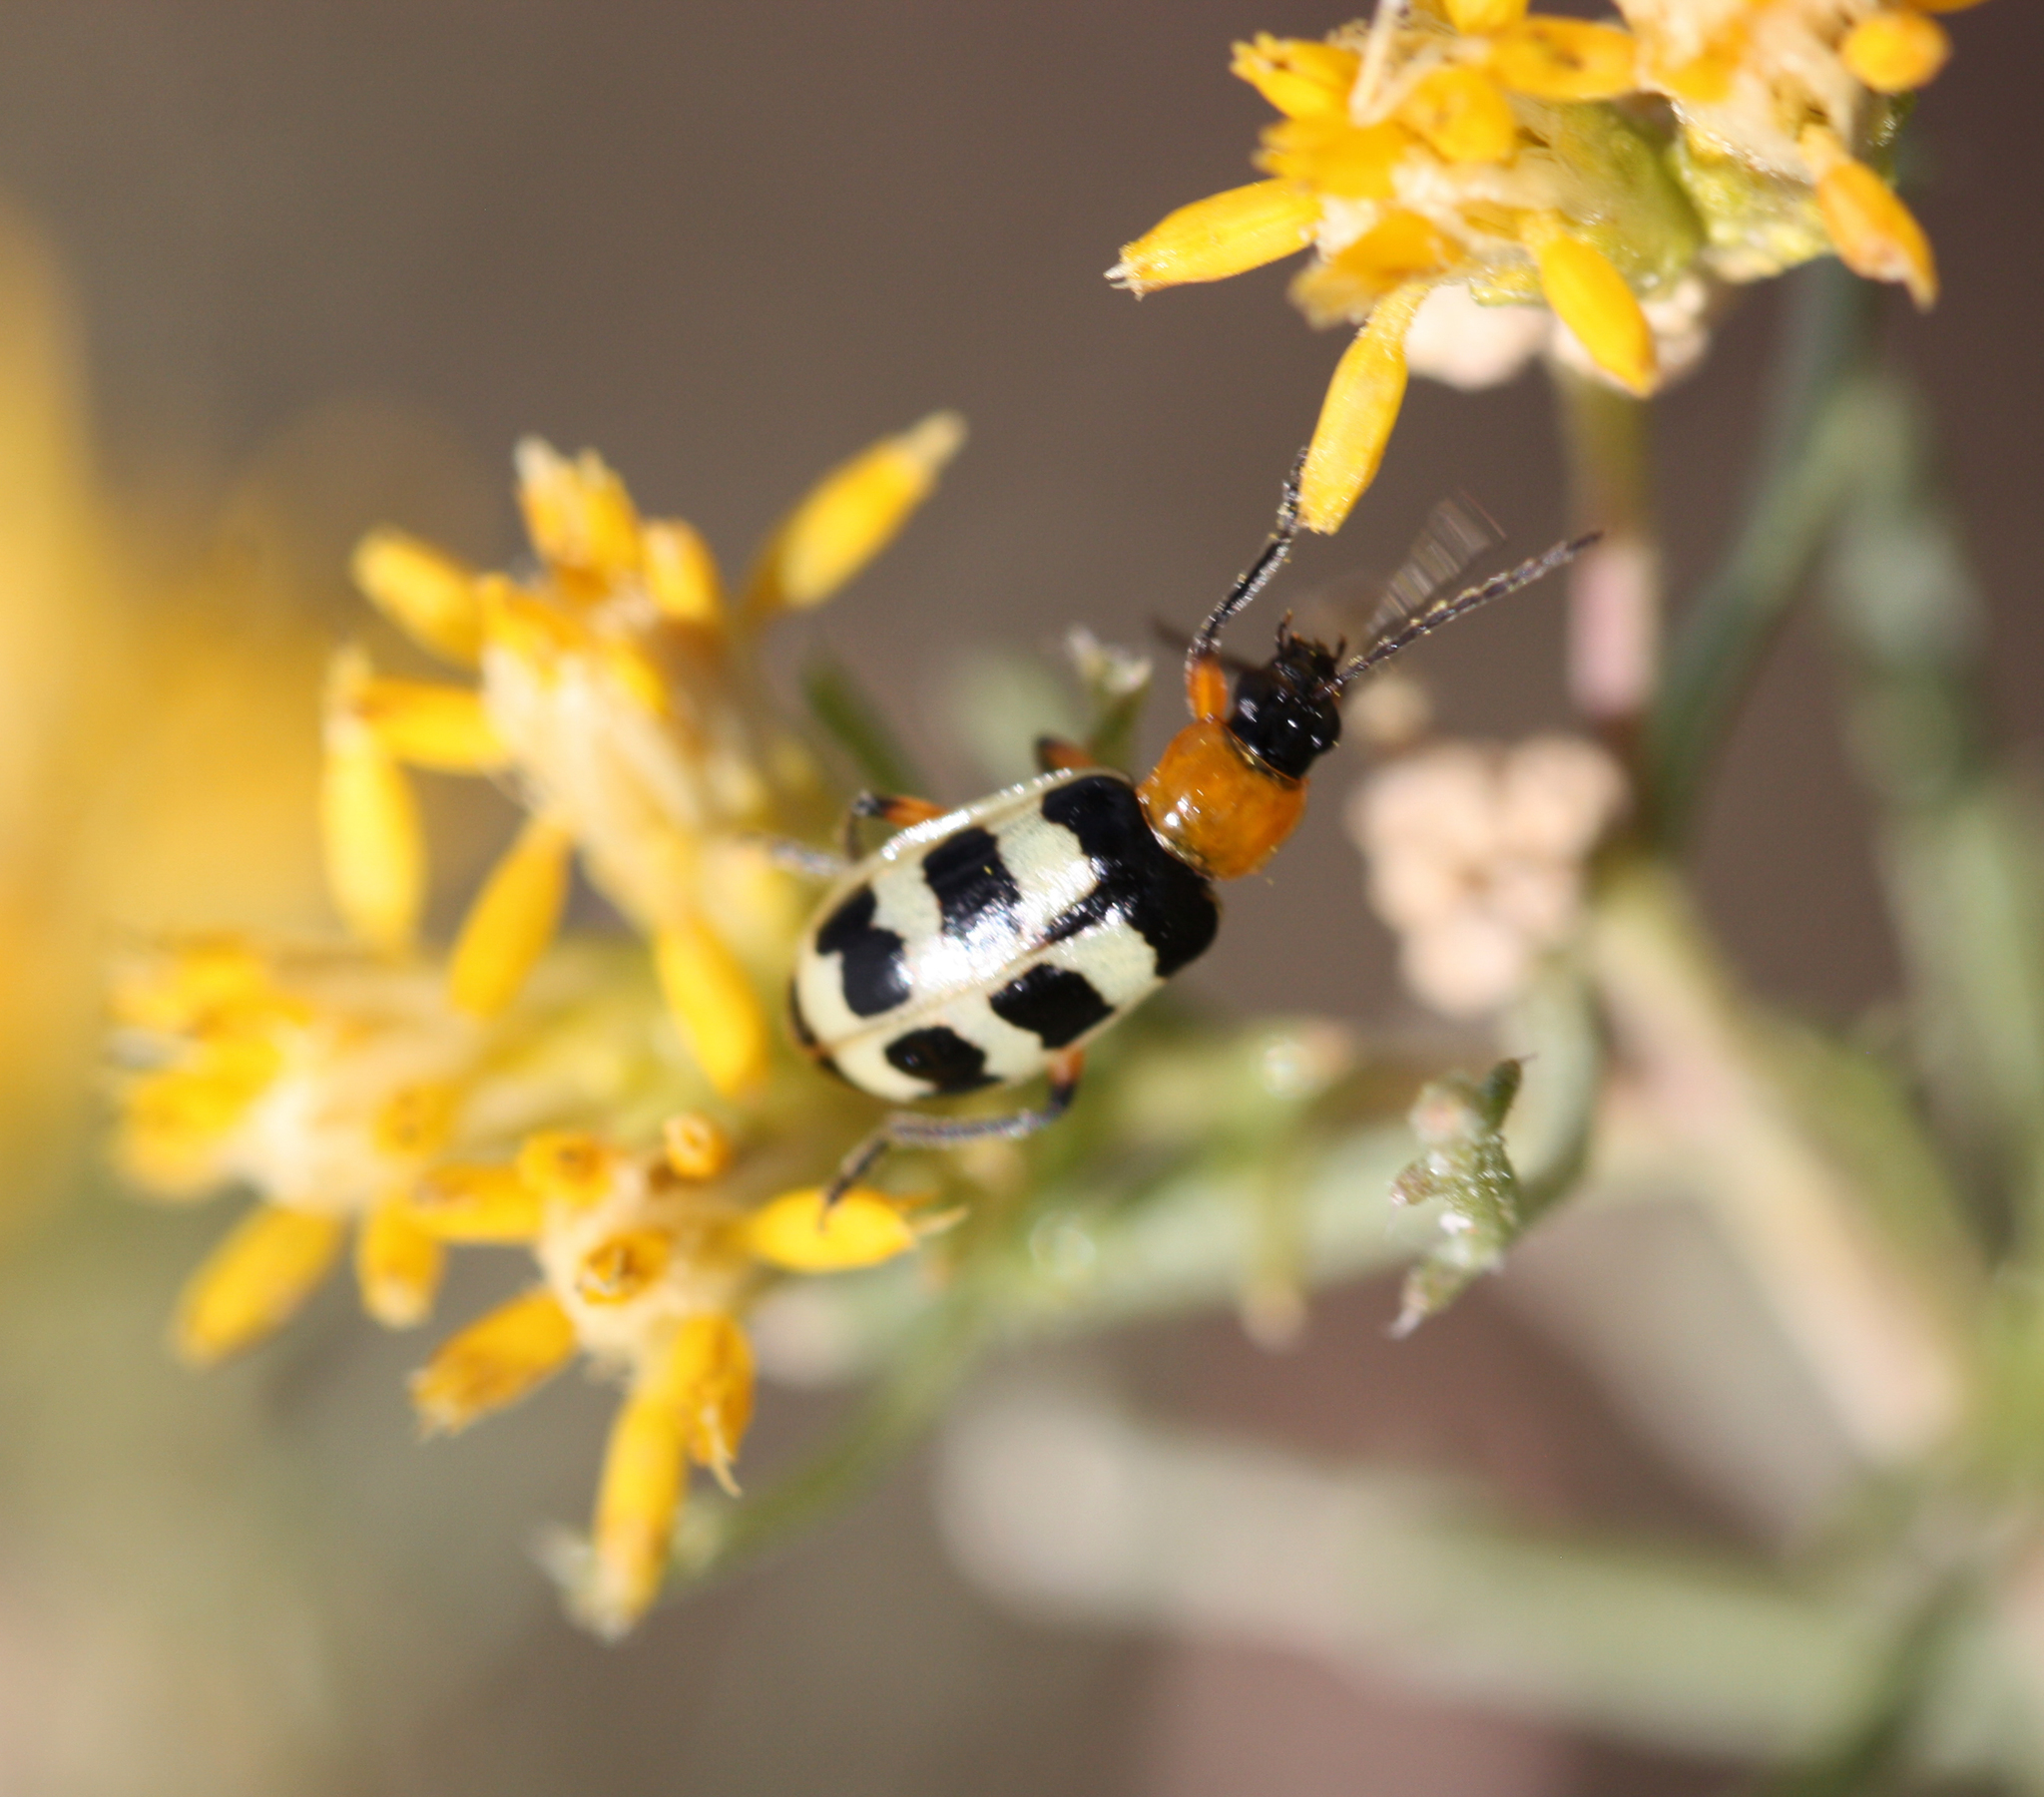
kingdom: Animalia
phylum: Arthropoda
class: Insecta
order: Coleoptera
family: Chrysomelidae
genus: Paranapiacaba
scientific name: Paranapiacaba tricincta
